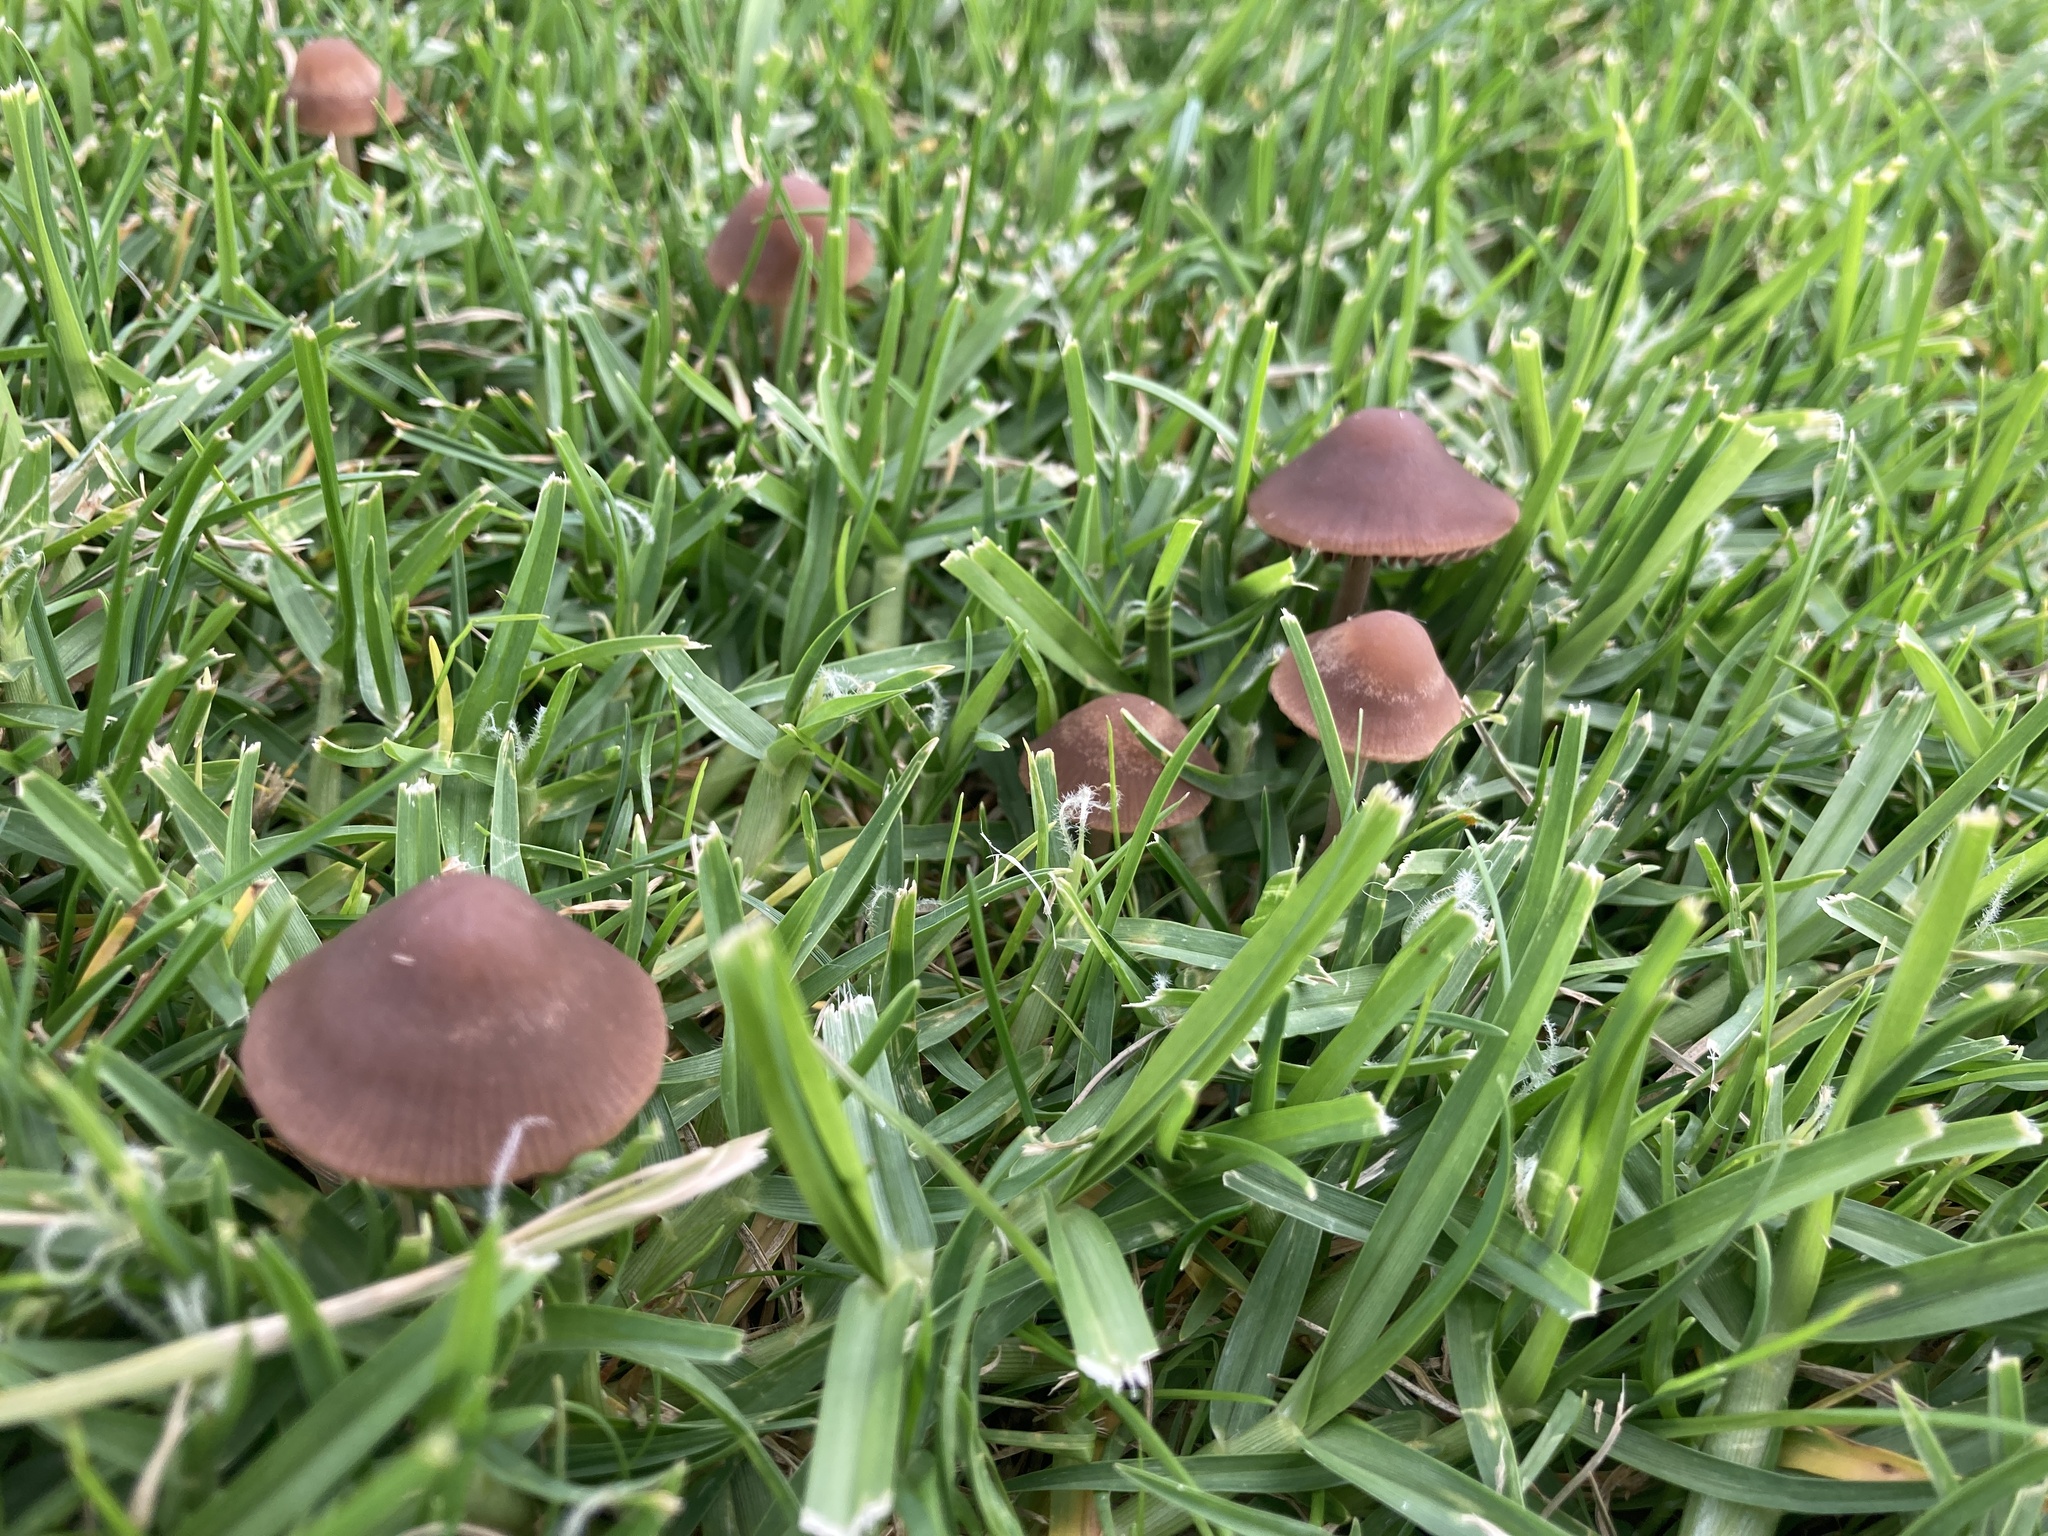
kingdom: Fungi
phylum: Basidiomycota
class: Agaricomycetes
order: Agaricales
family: Bolbitiaceae
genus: Panaeolina
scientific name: Panaeolina foenisecii
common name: Brown hay cap
